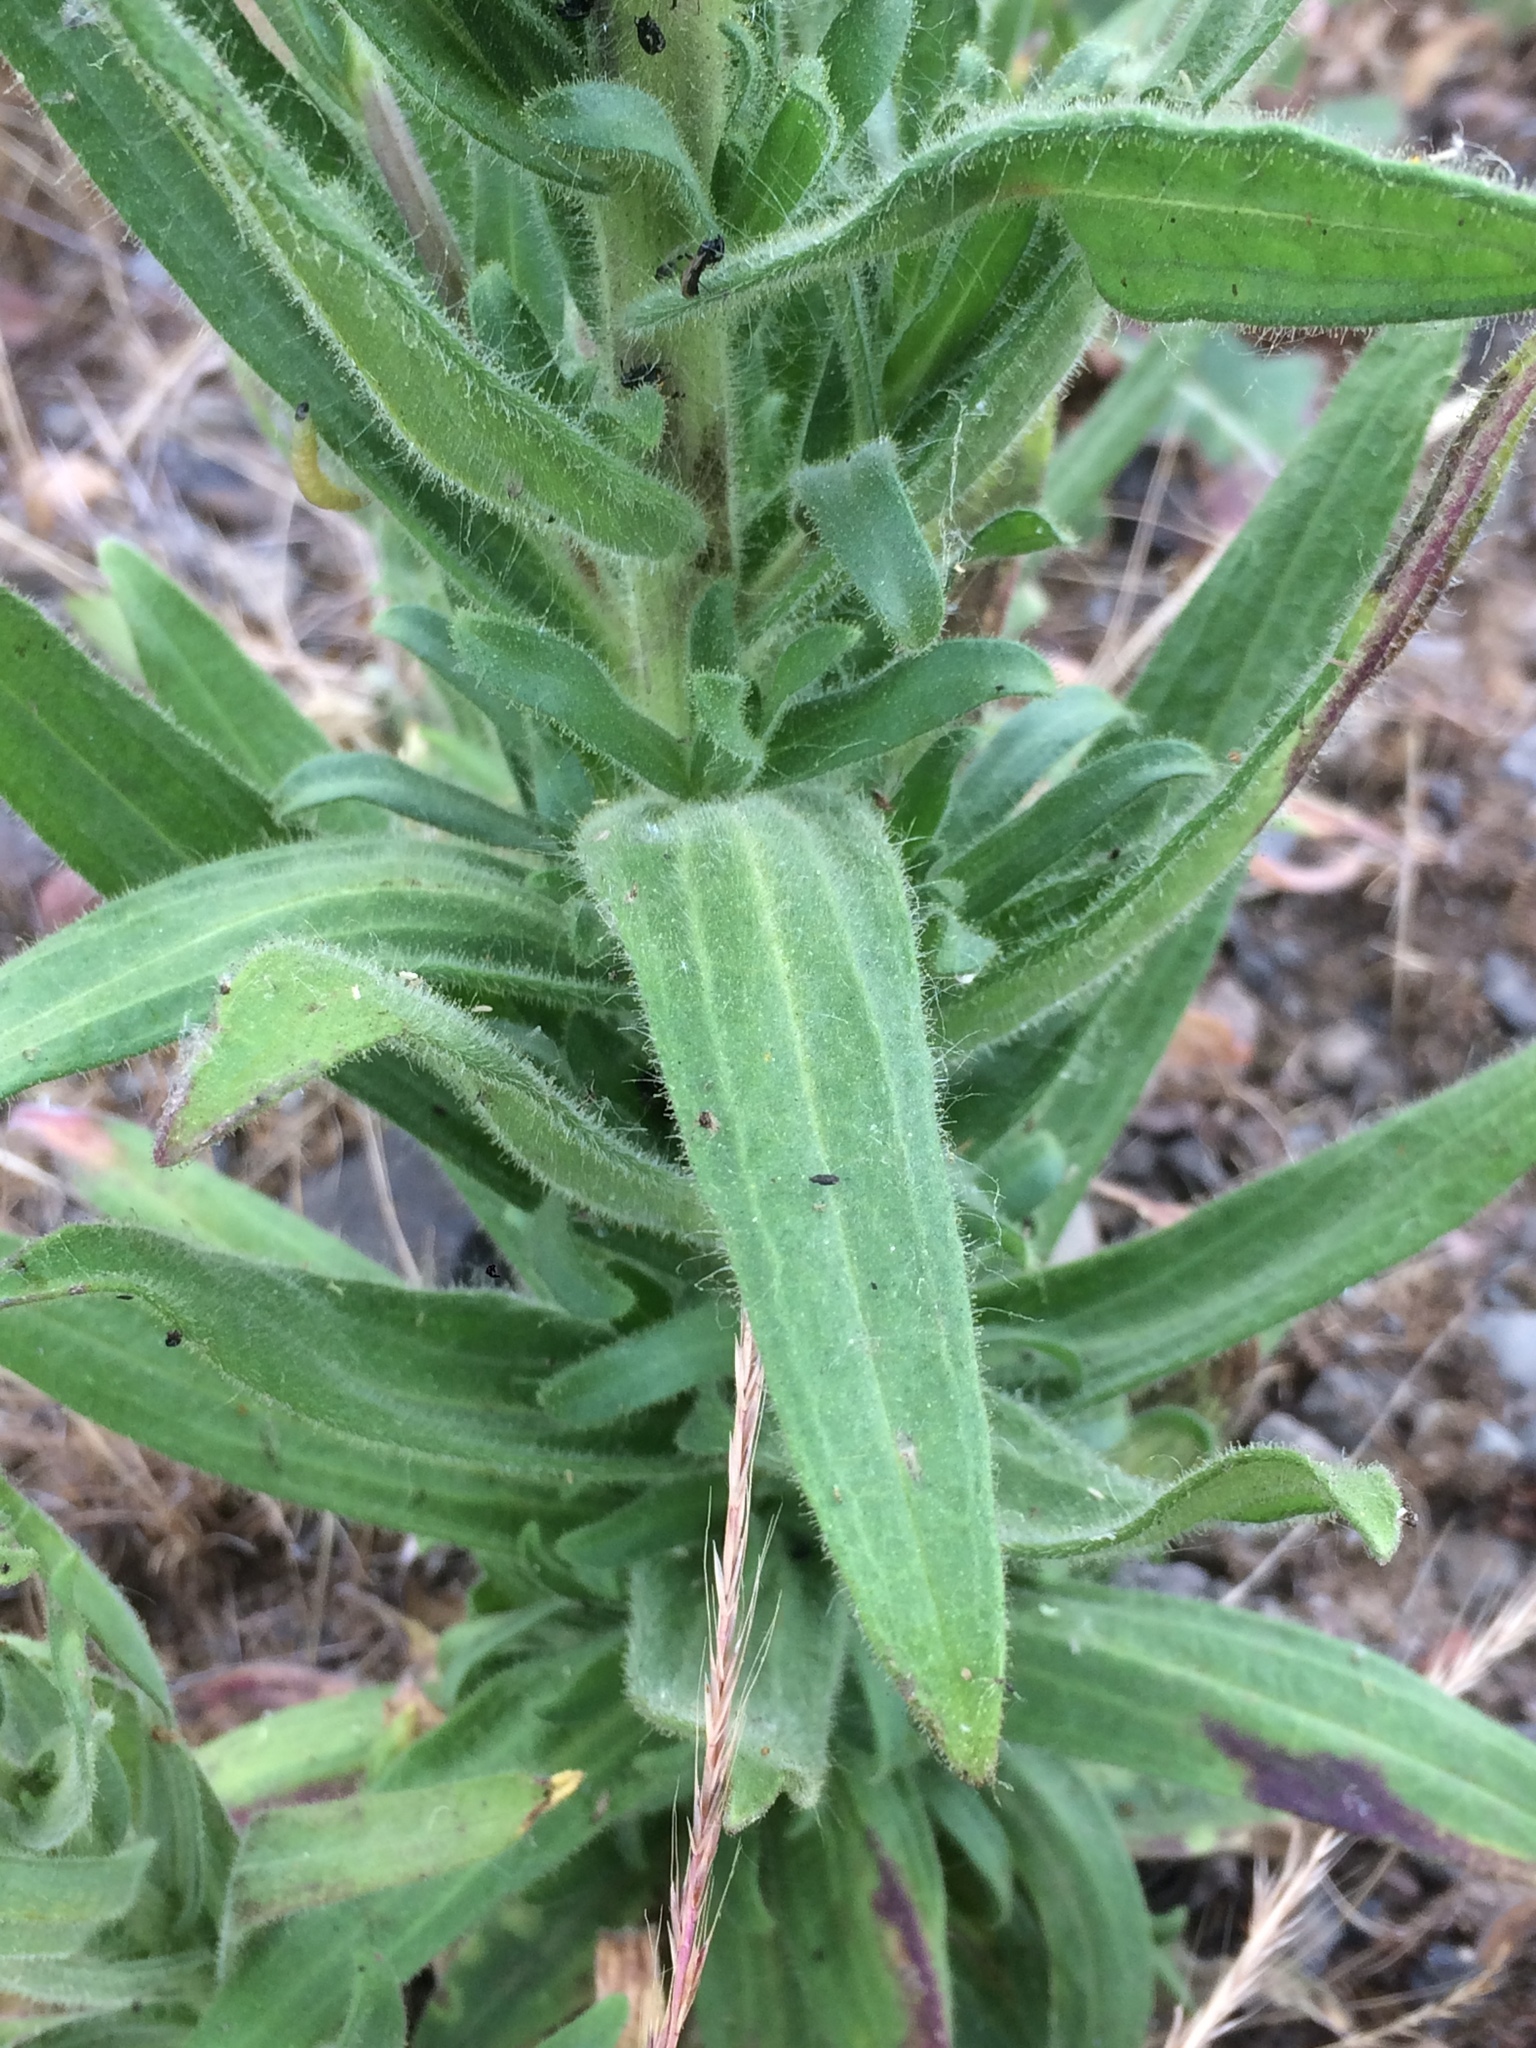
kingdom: Plantae
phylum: Tracheophyta
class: Magnoliopsida
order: Asterales
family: Asteraceae
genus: Madia
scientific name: Madia gracilis
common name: Grassy tarweed
